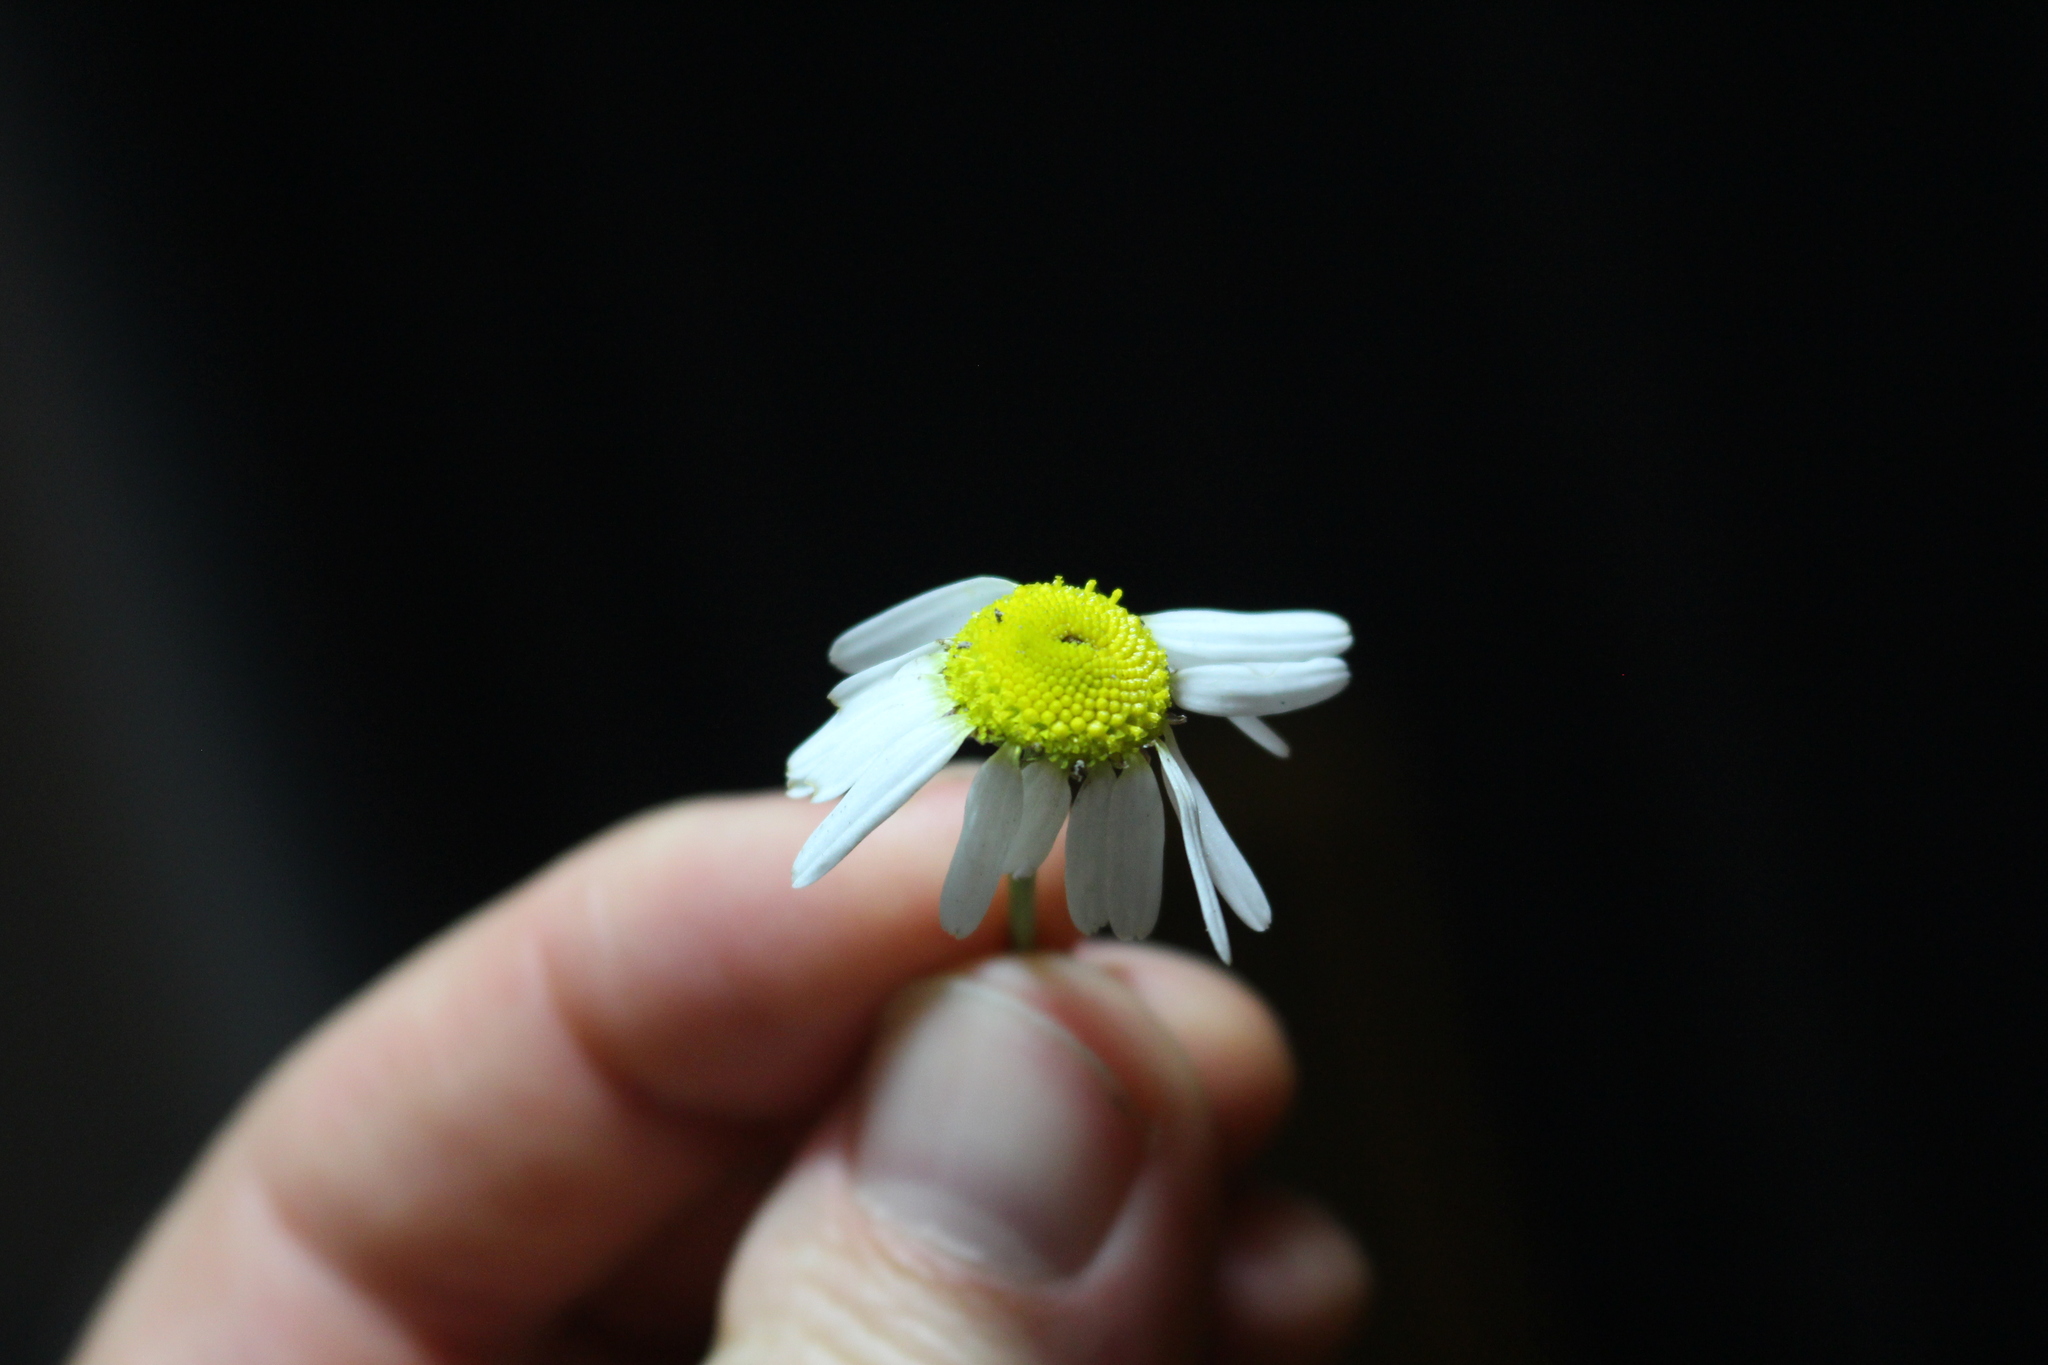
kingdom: Plantae
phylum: Tracheophyta
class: Magnoliopsida
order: Asterales
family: Asteraceae
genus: Tripleurospermum
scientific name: Tripleurospermum inodorum
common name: Scentless mayweed
